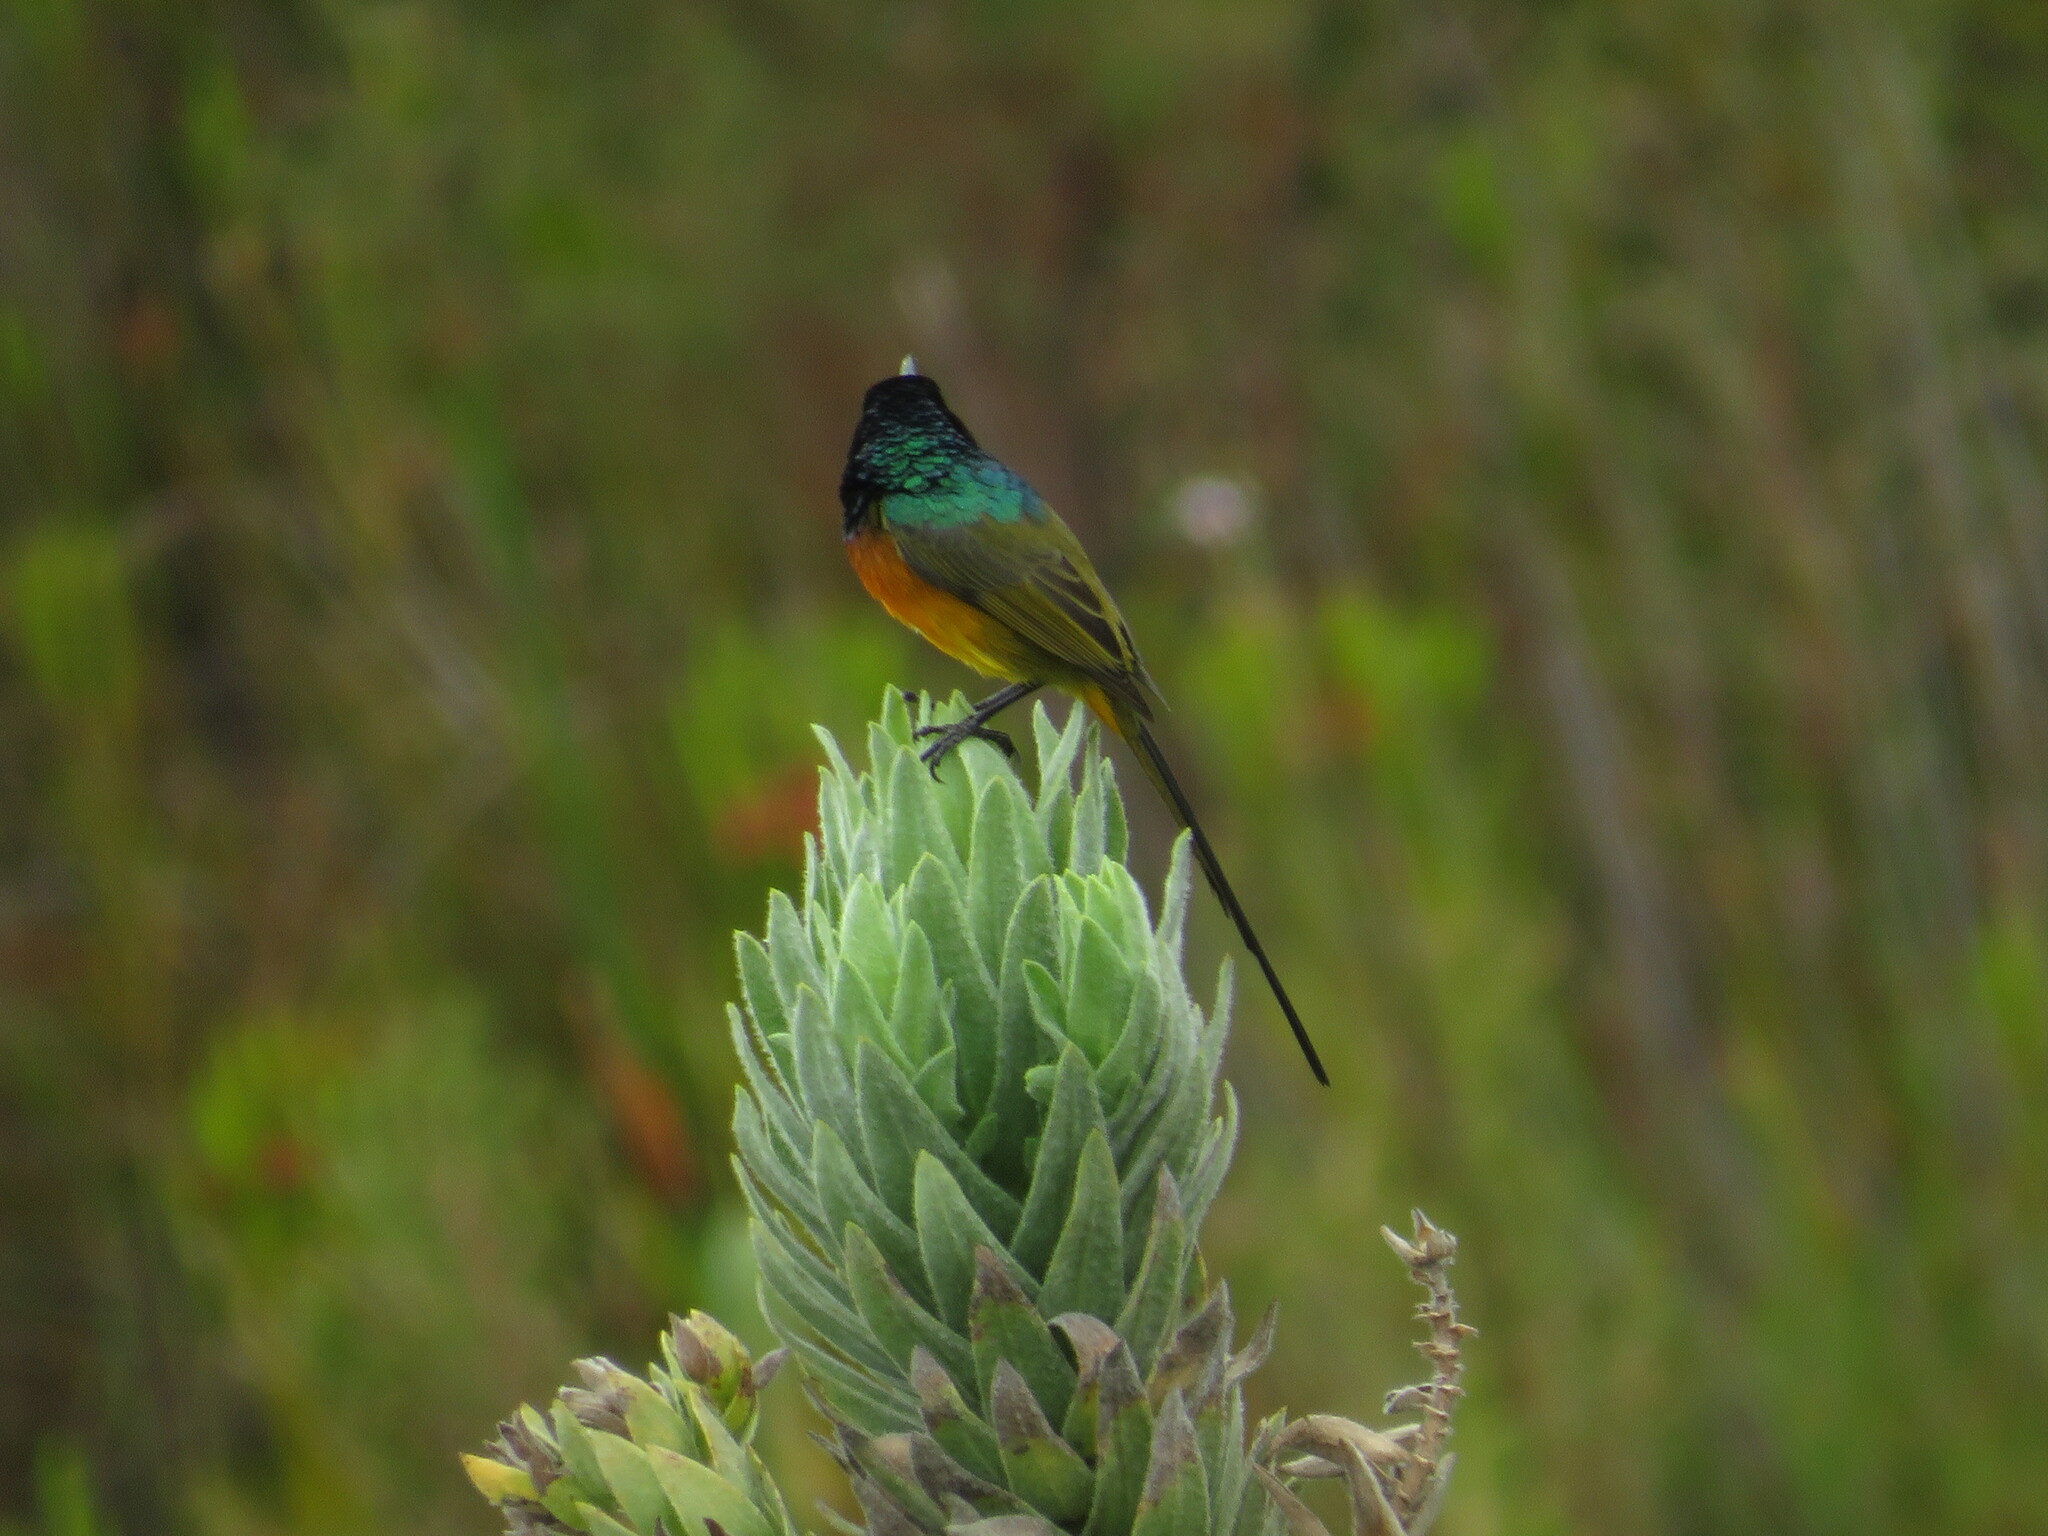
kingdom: Animalia
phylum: Chordata
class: Aves
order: Passeriformes
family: Nectariniidae
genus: Anthobaphes
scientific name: Anthobaphes violacea
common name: Orange-breasted sunbird
